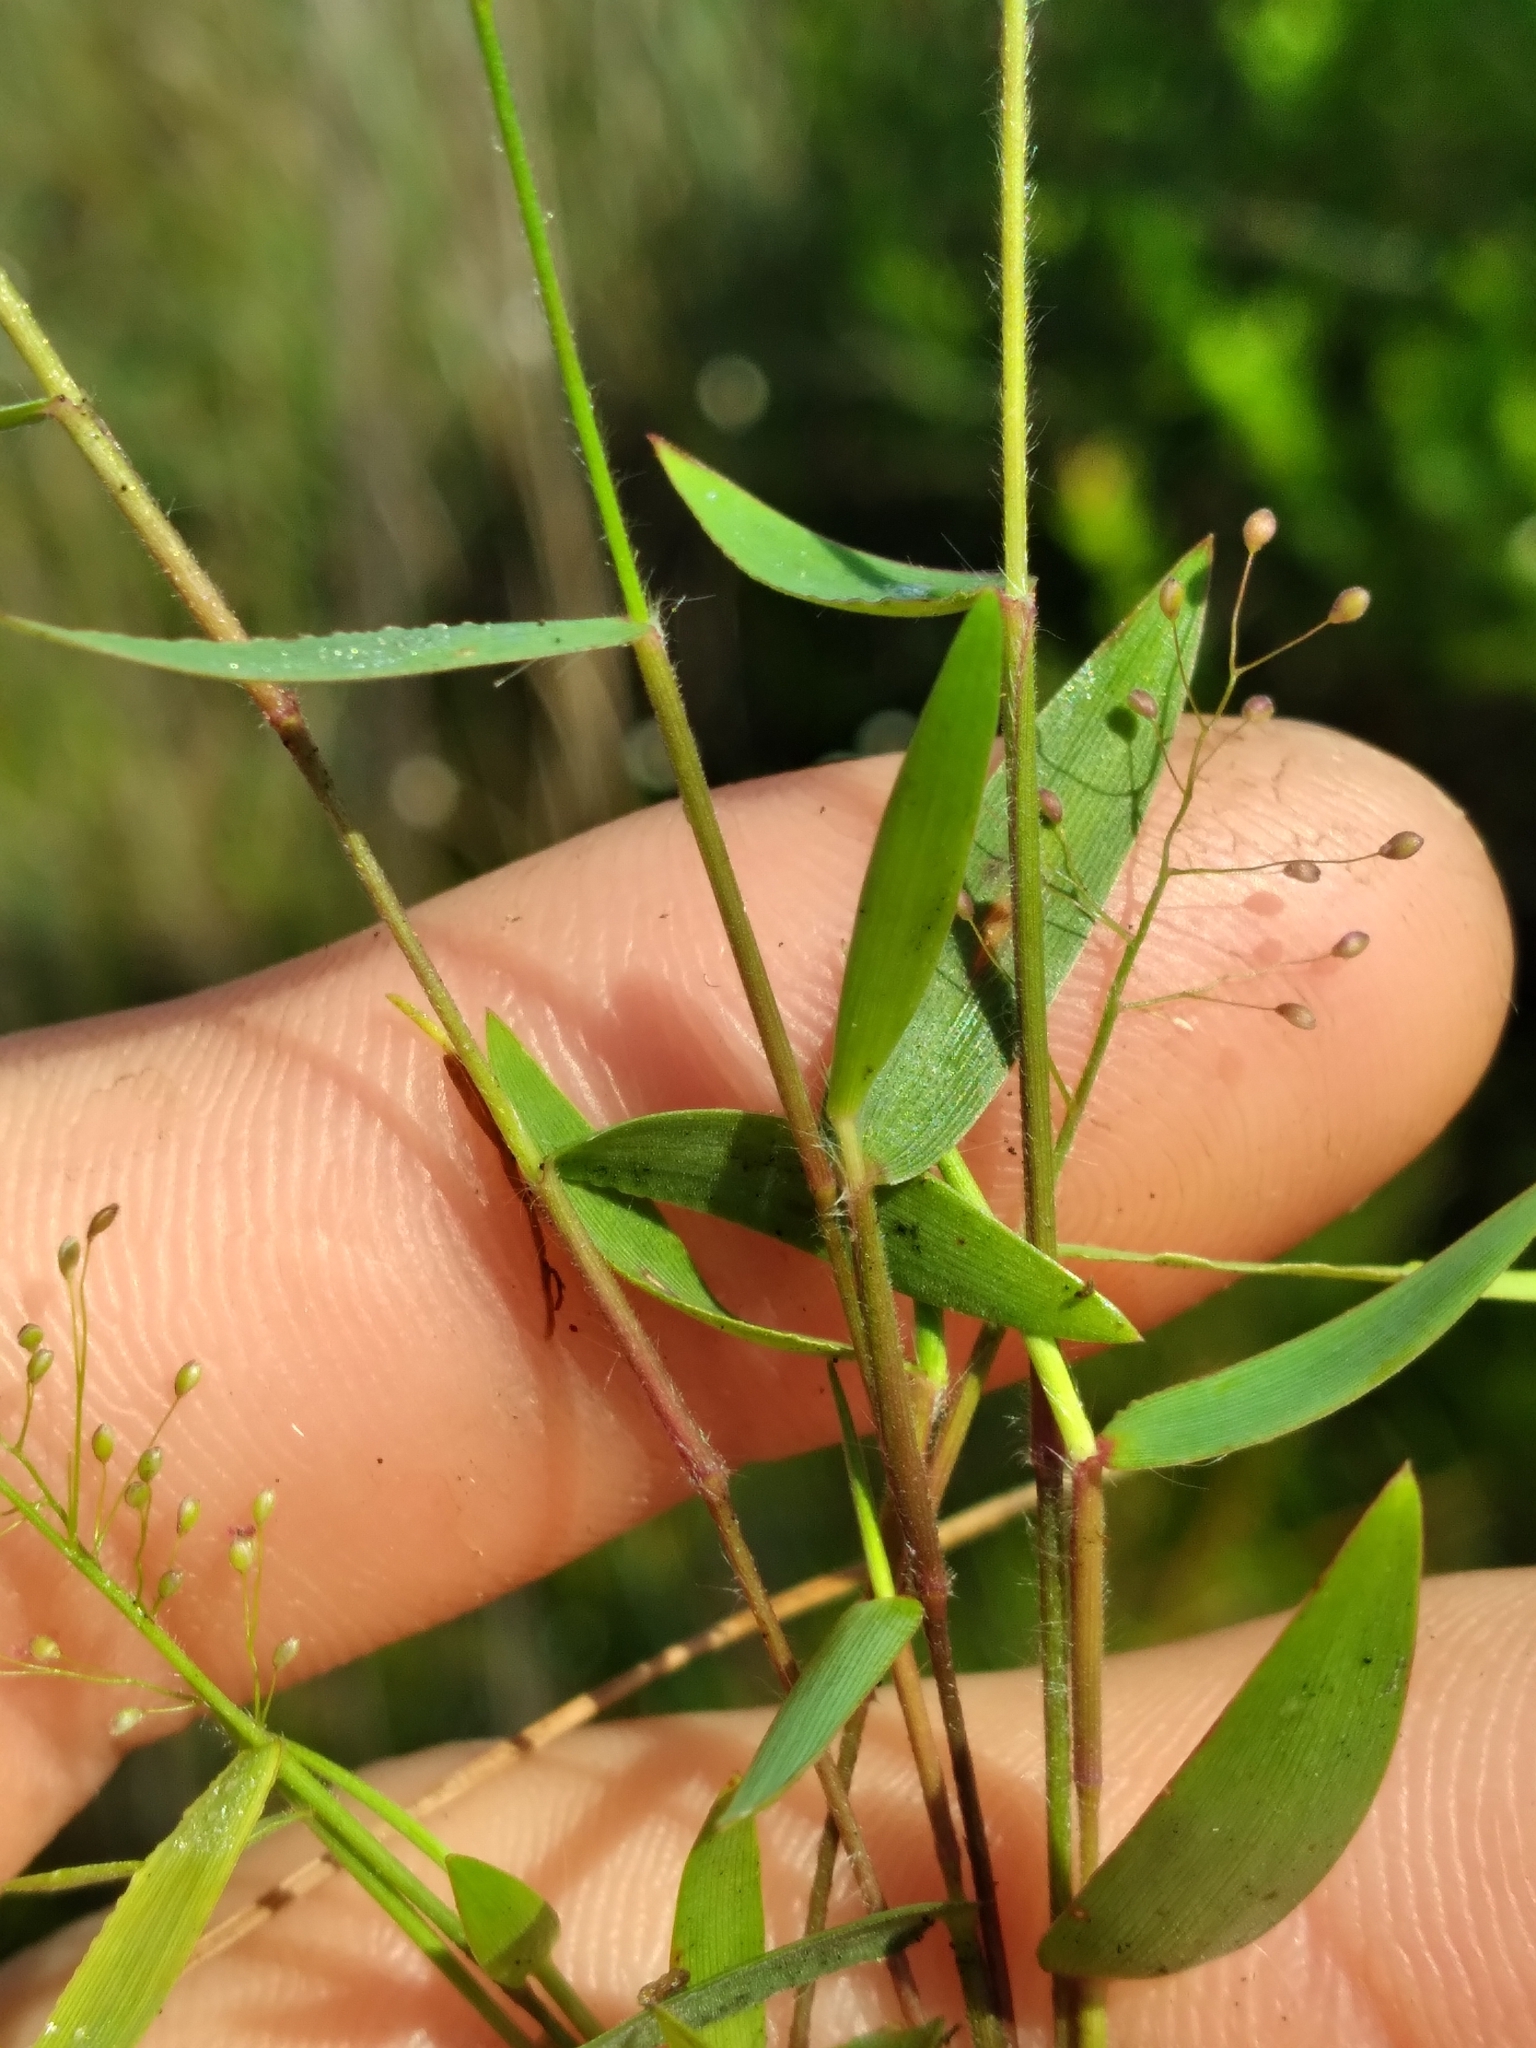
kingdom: Plantae
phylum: Tracheophyta
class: Liliopsida
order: Poales
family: Poaceae
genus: Dichanthelium
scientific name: Dichanthelium leucothrix
